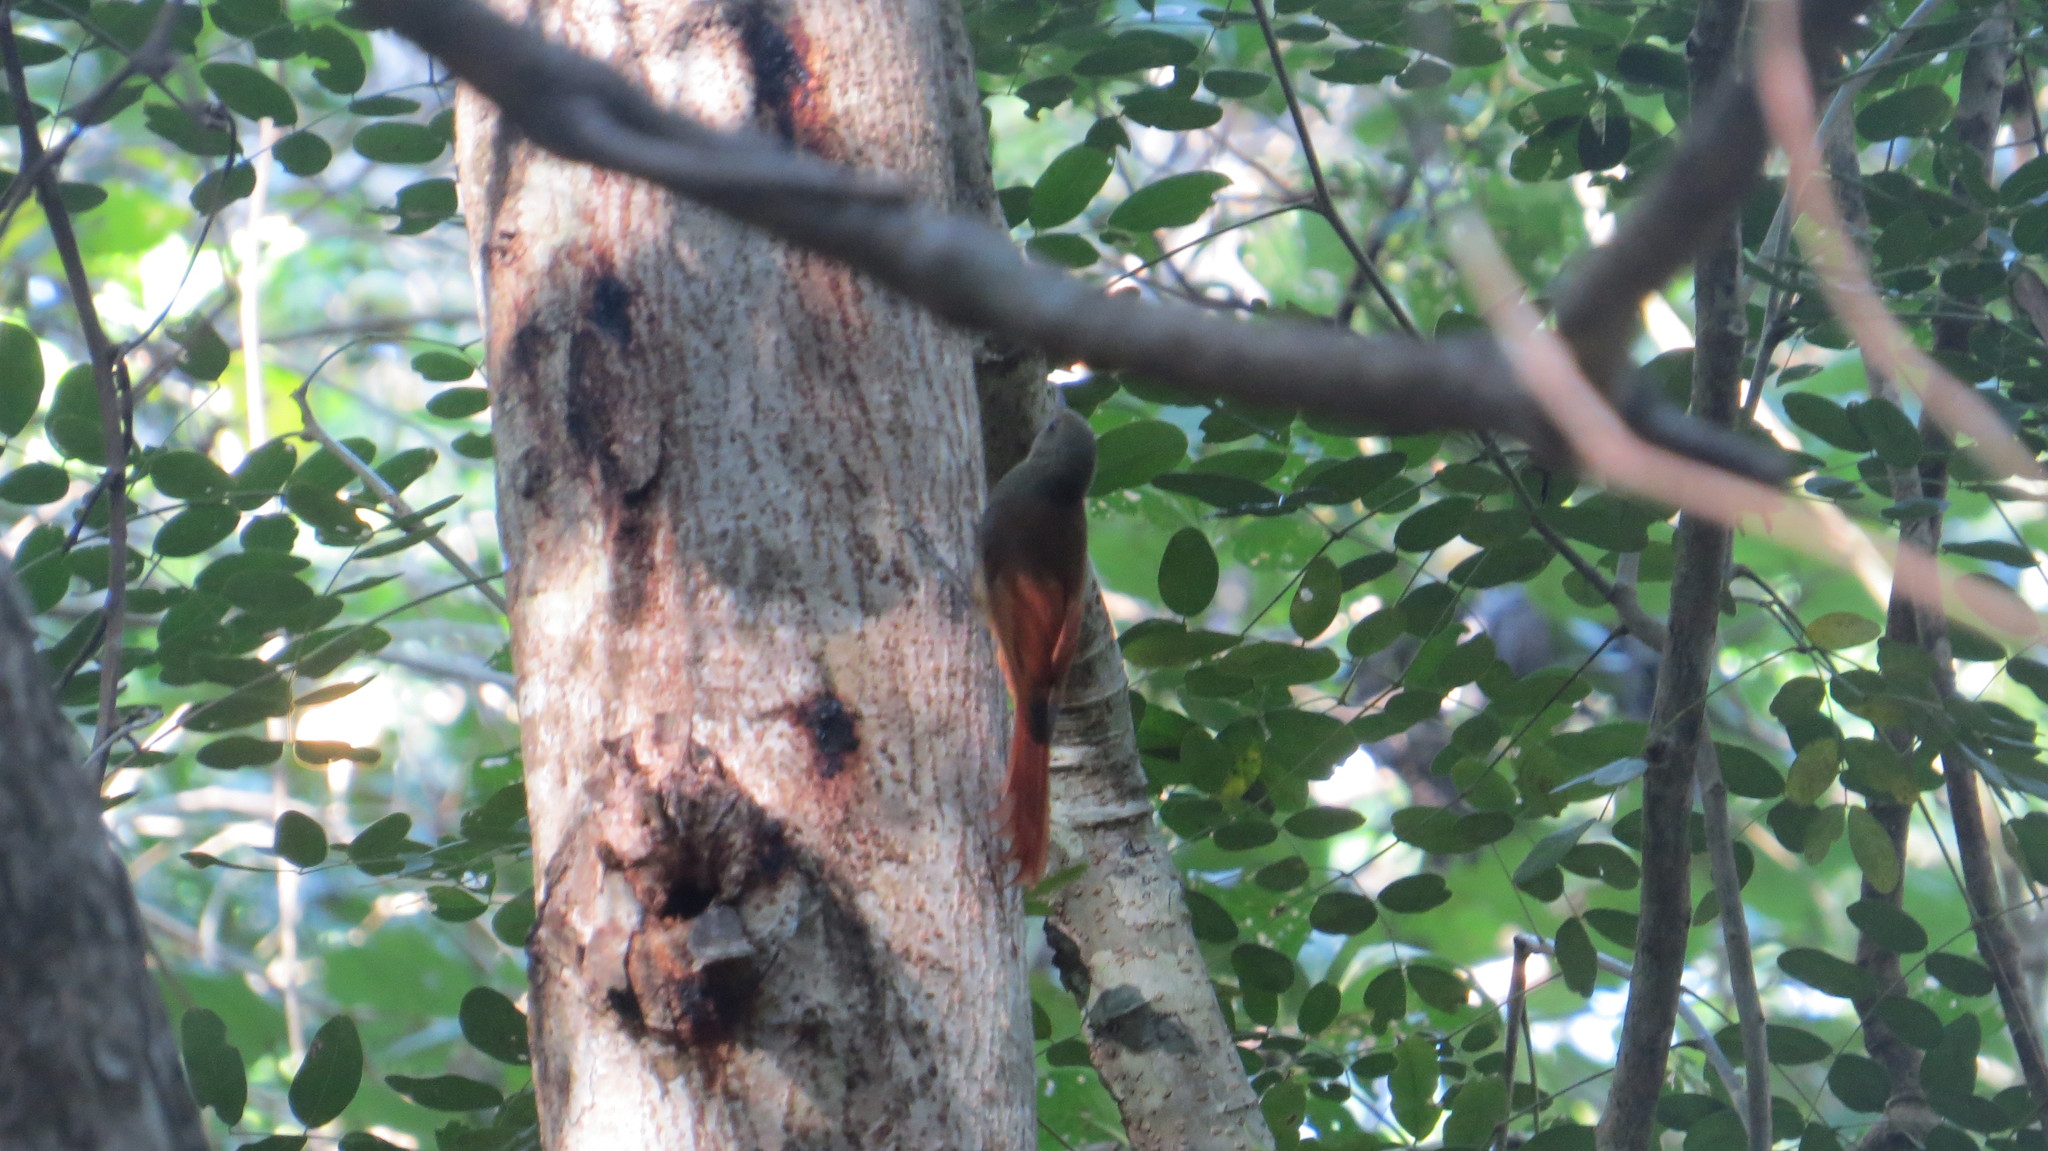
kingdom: Animalia
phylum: Chordata
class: Aves
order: Passeriformes
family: Furnariidae
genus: Sittasomus
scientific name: Sittasomus griseicapillus
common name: Olivaceous woodcreeper
